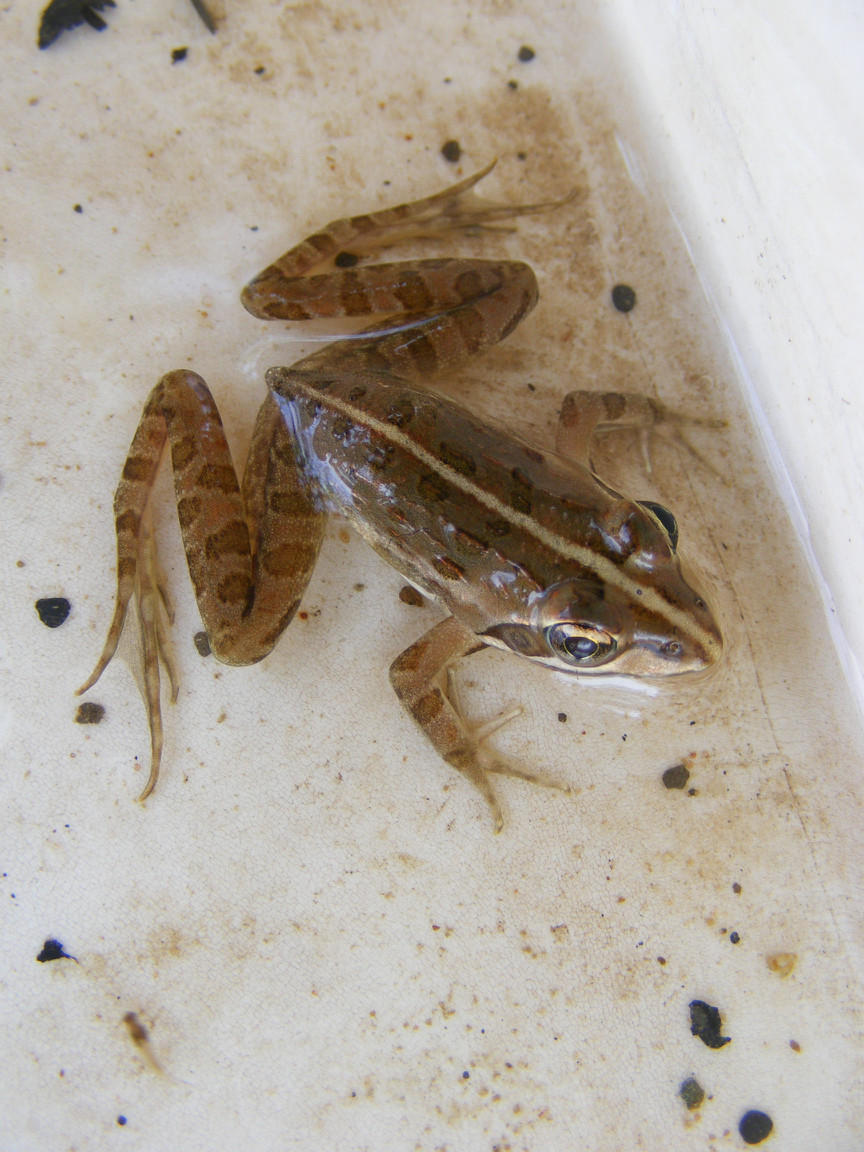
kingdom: Animalia
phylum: Chordata
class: Amphibia
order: Anura
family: Pyxicephalidae
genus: Amietia
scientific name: Amietia delalandii
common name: Delalande's river frog
